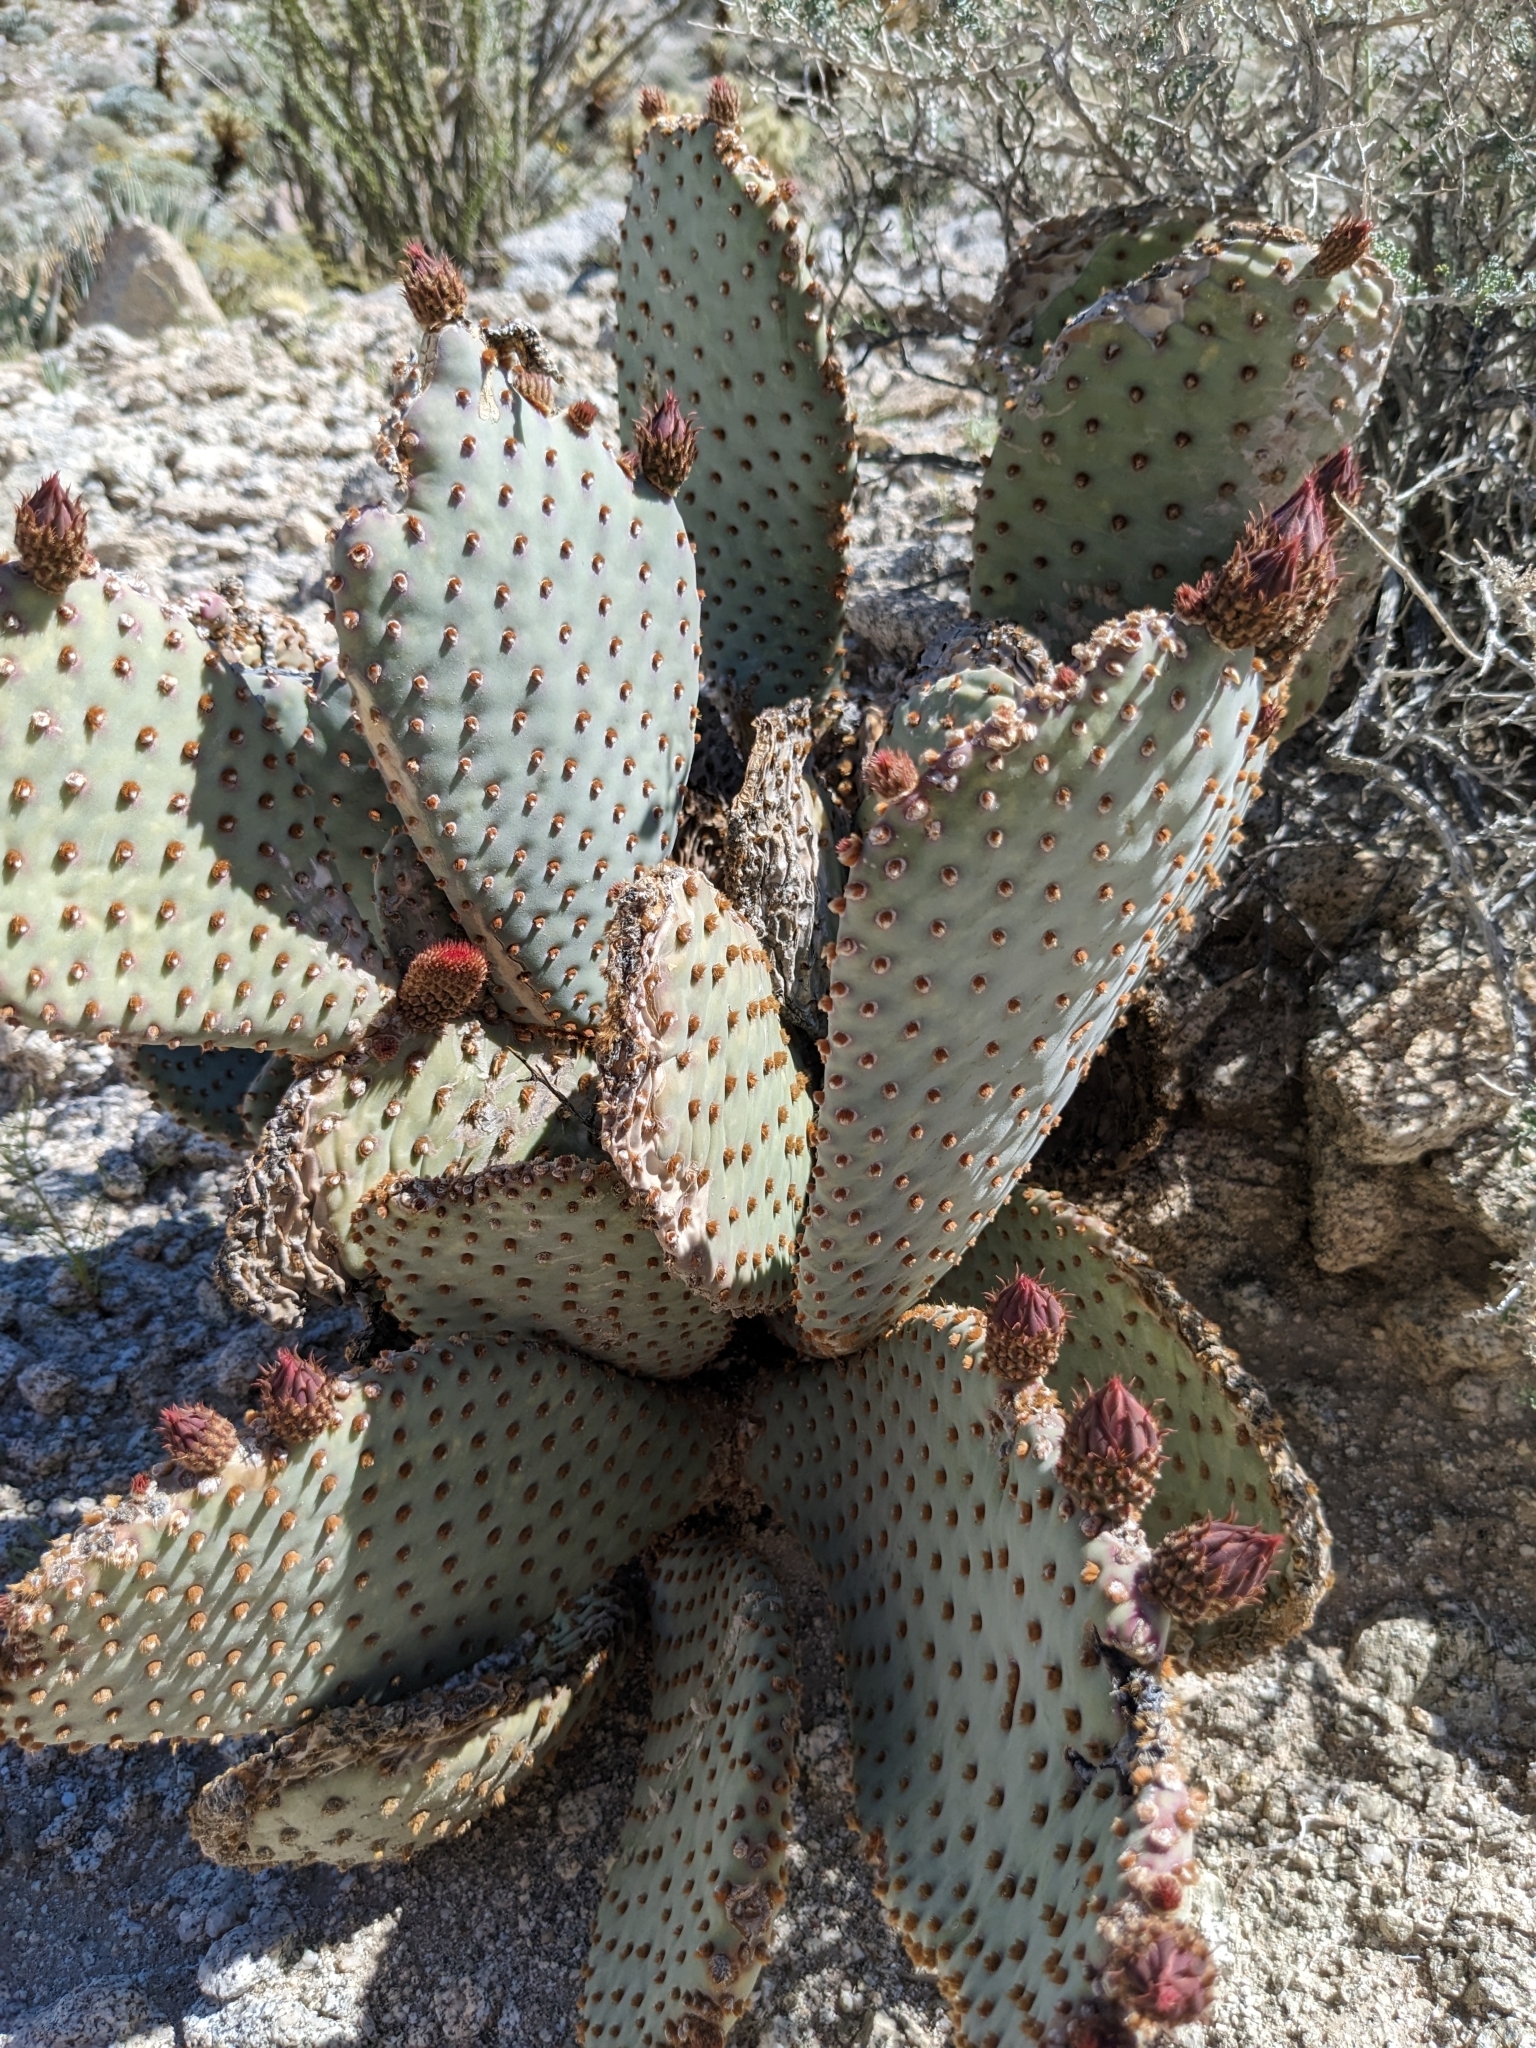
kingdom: Plantae
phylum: Tracheophyta
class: Magnoliopsida
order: Caryophyllales
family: Cactaceae
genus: Opuntia
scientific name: Opuntia basilaris
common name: Beavertail prickly-pear
